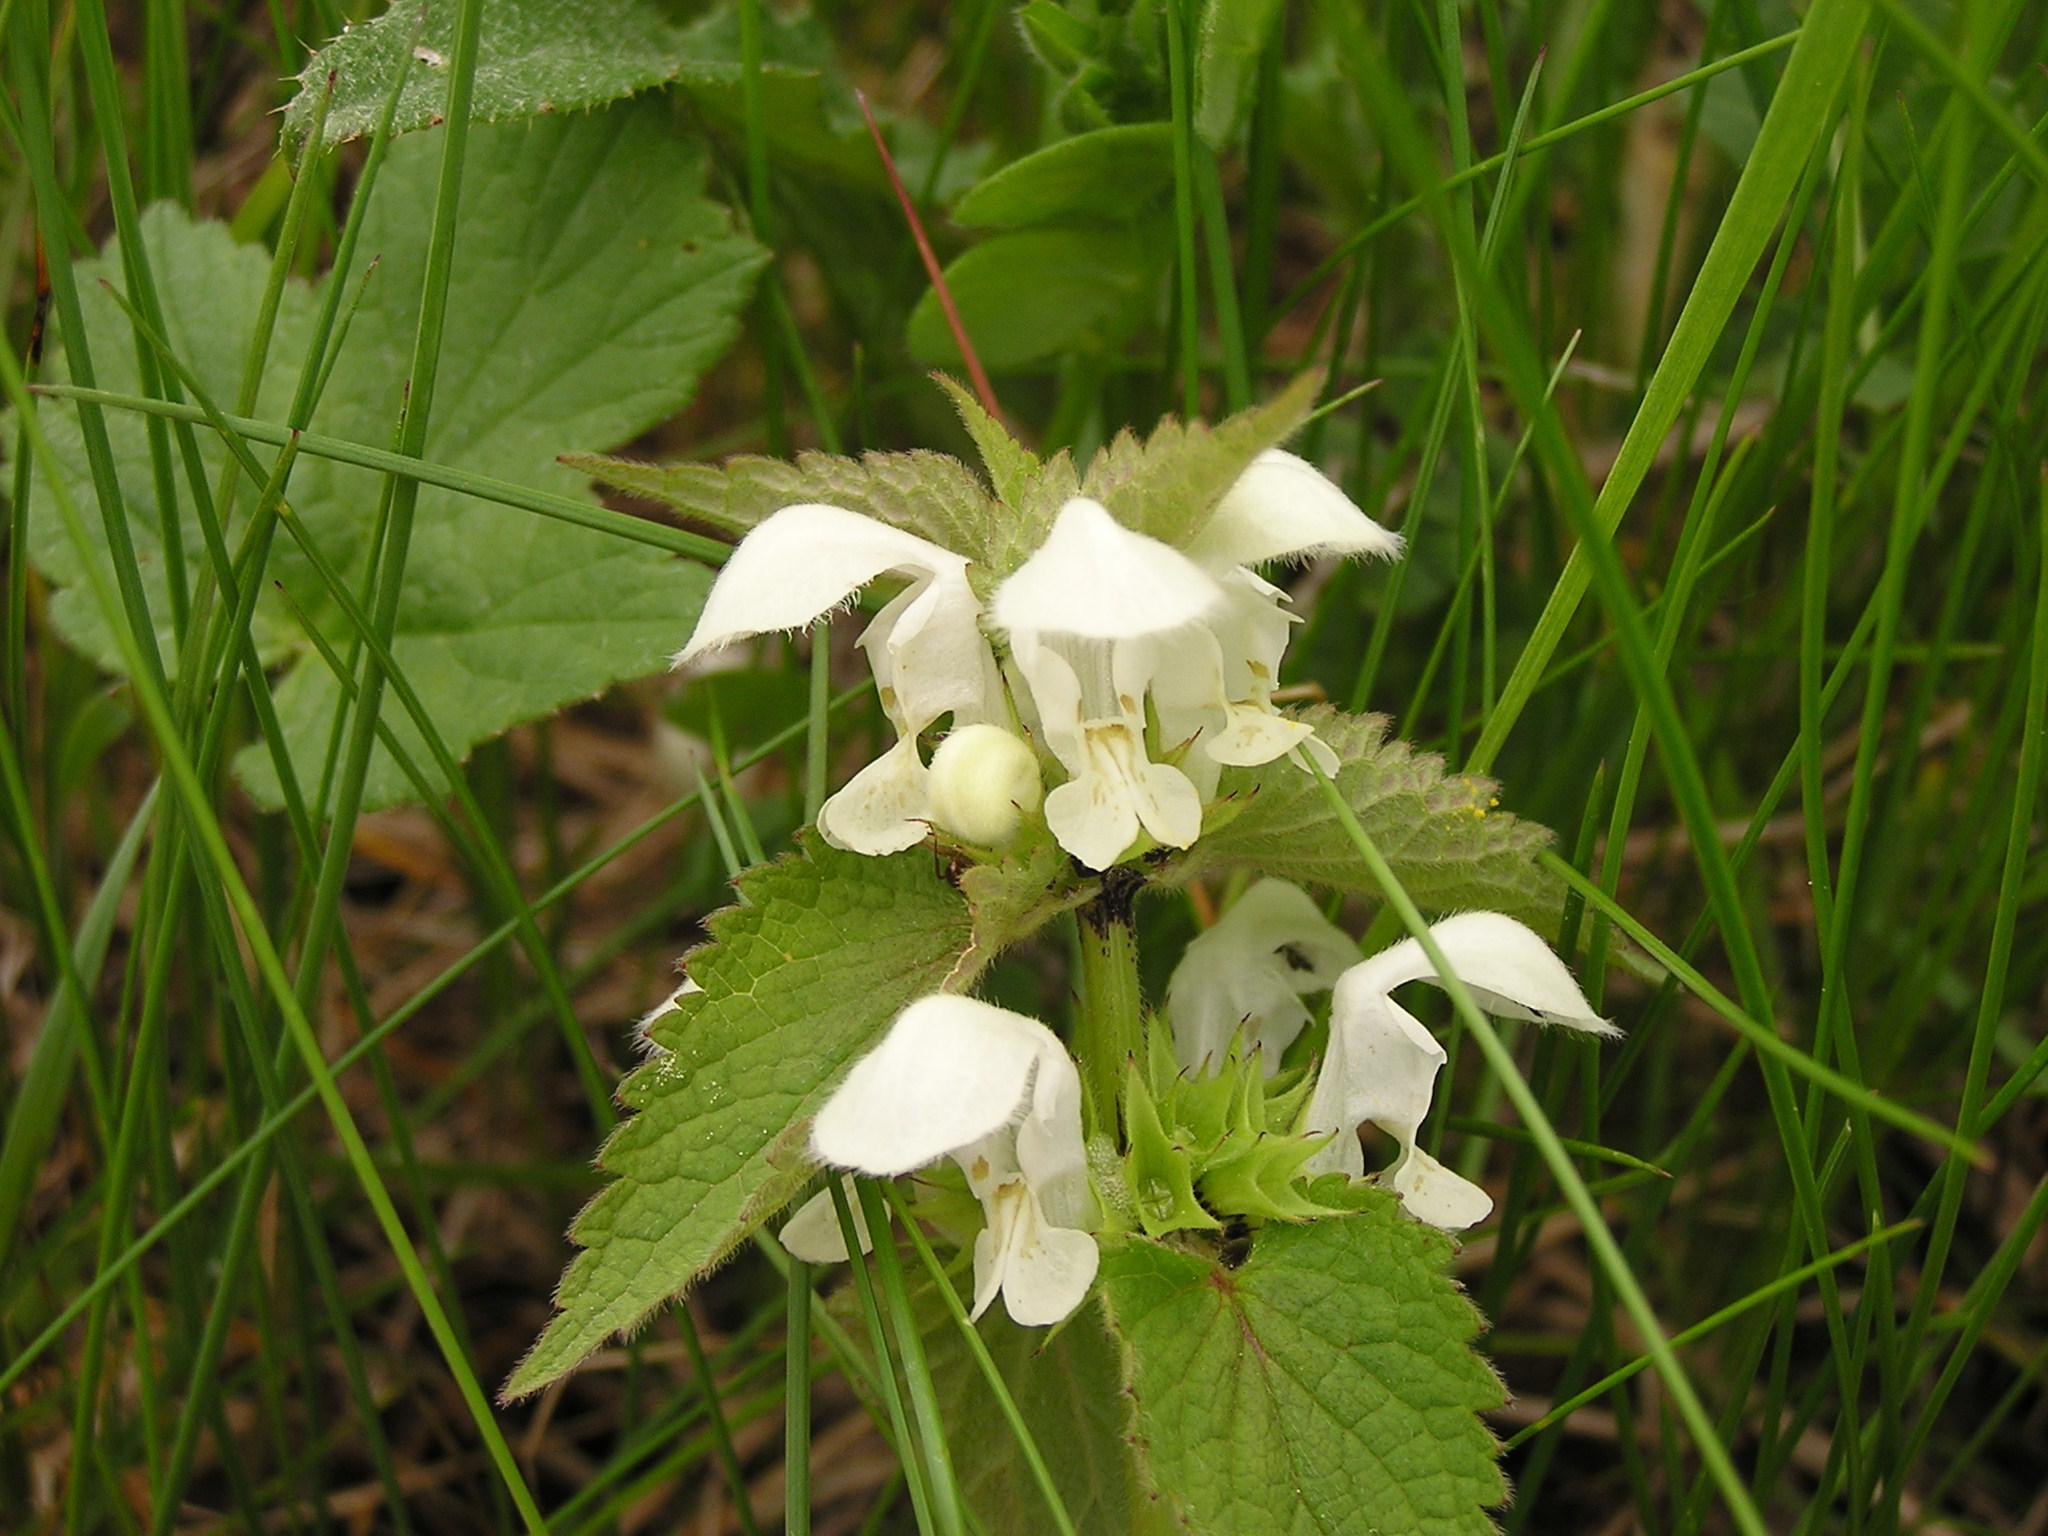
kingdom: Plantae
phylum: Tracheophyta
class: Magnoliopsida
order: Lamiales
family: Lamiaceae
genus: Lamium
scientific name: Lamium album
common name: White dead-nettle
